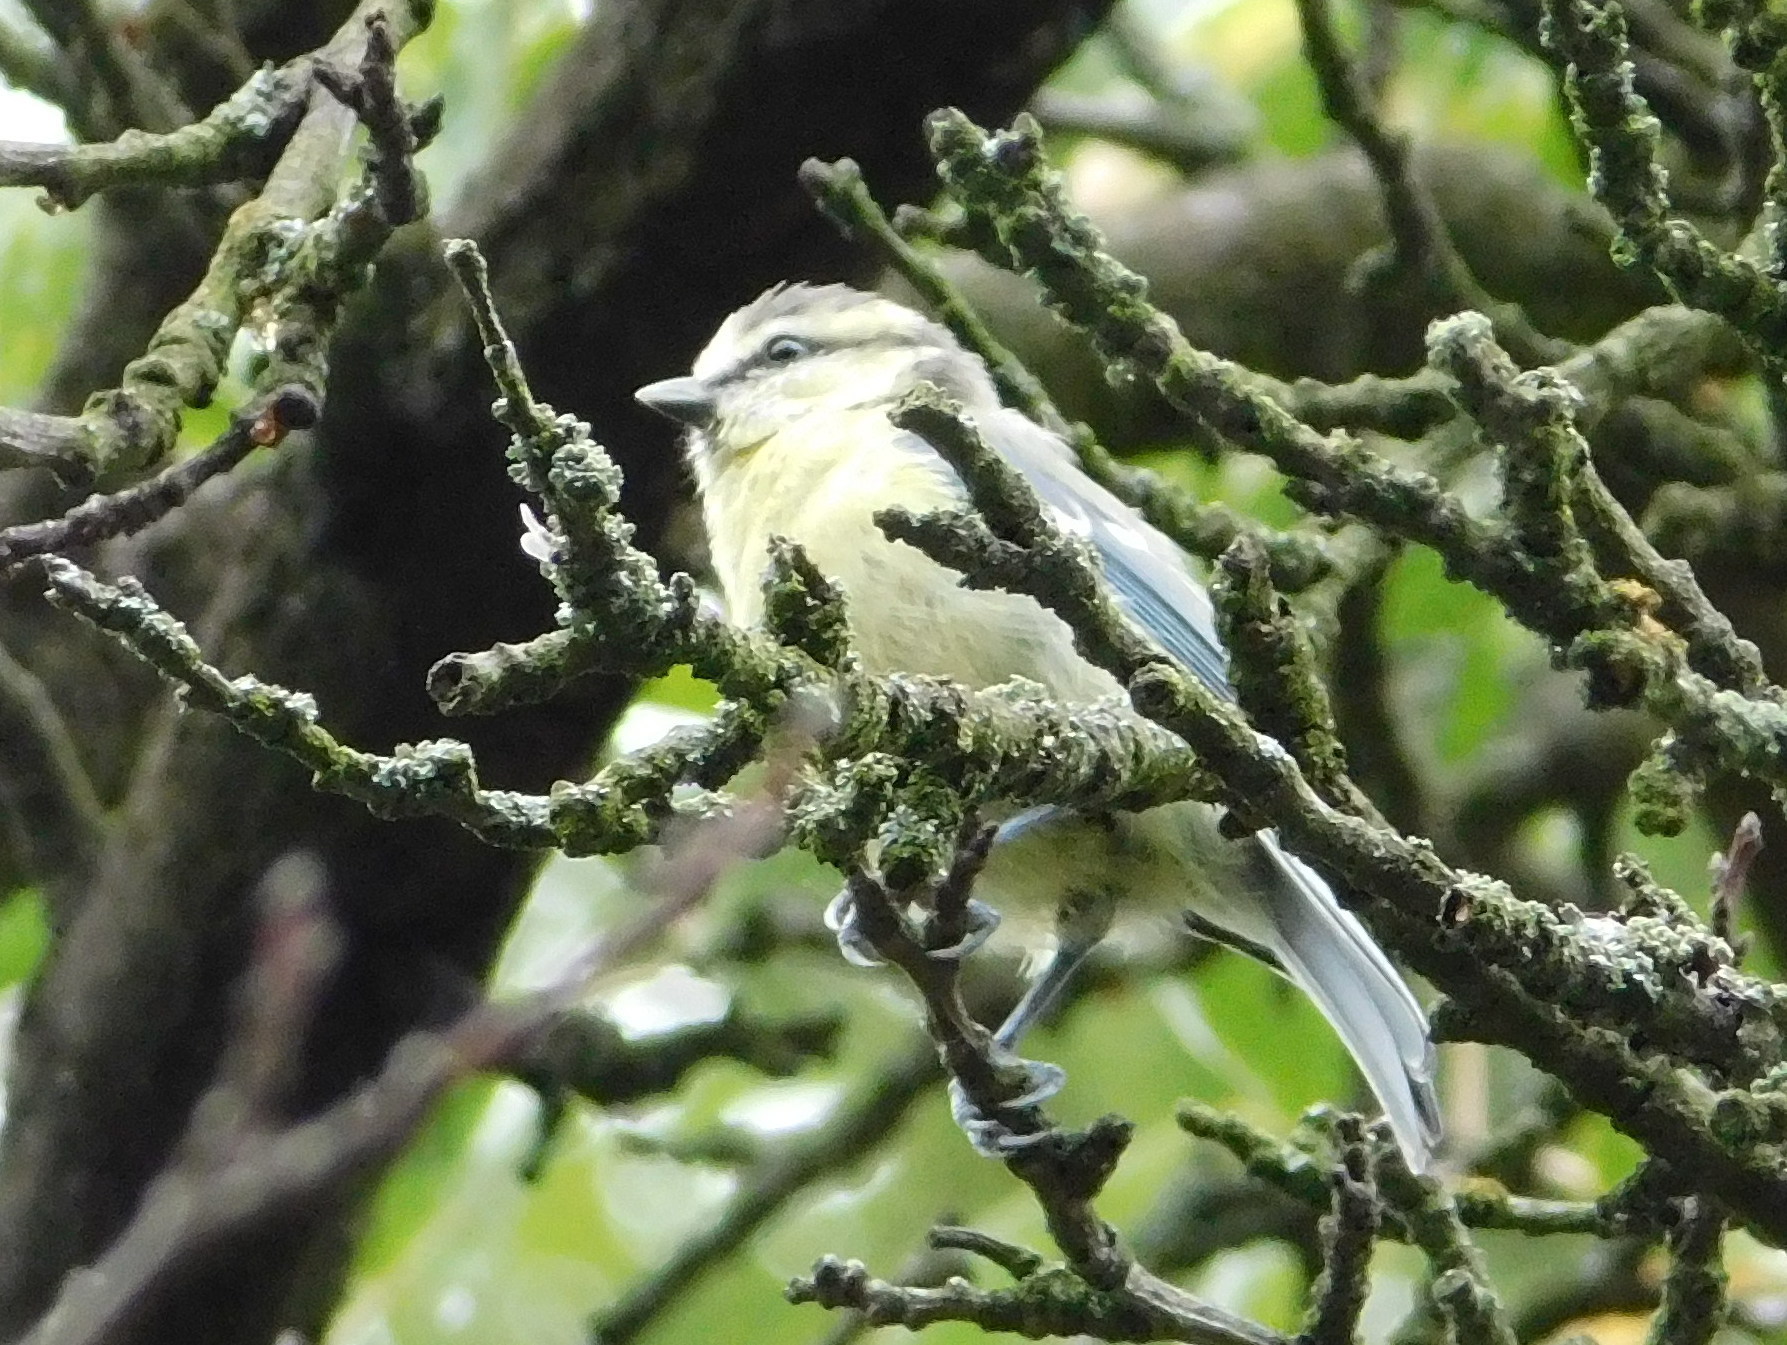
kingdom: Animalia
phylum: Chordata
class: Aves
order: Passeriformes
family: Paridae
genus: Cyanistes
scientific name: Cyanistes caeruleus
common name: Eurasian blue tit
